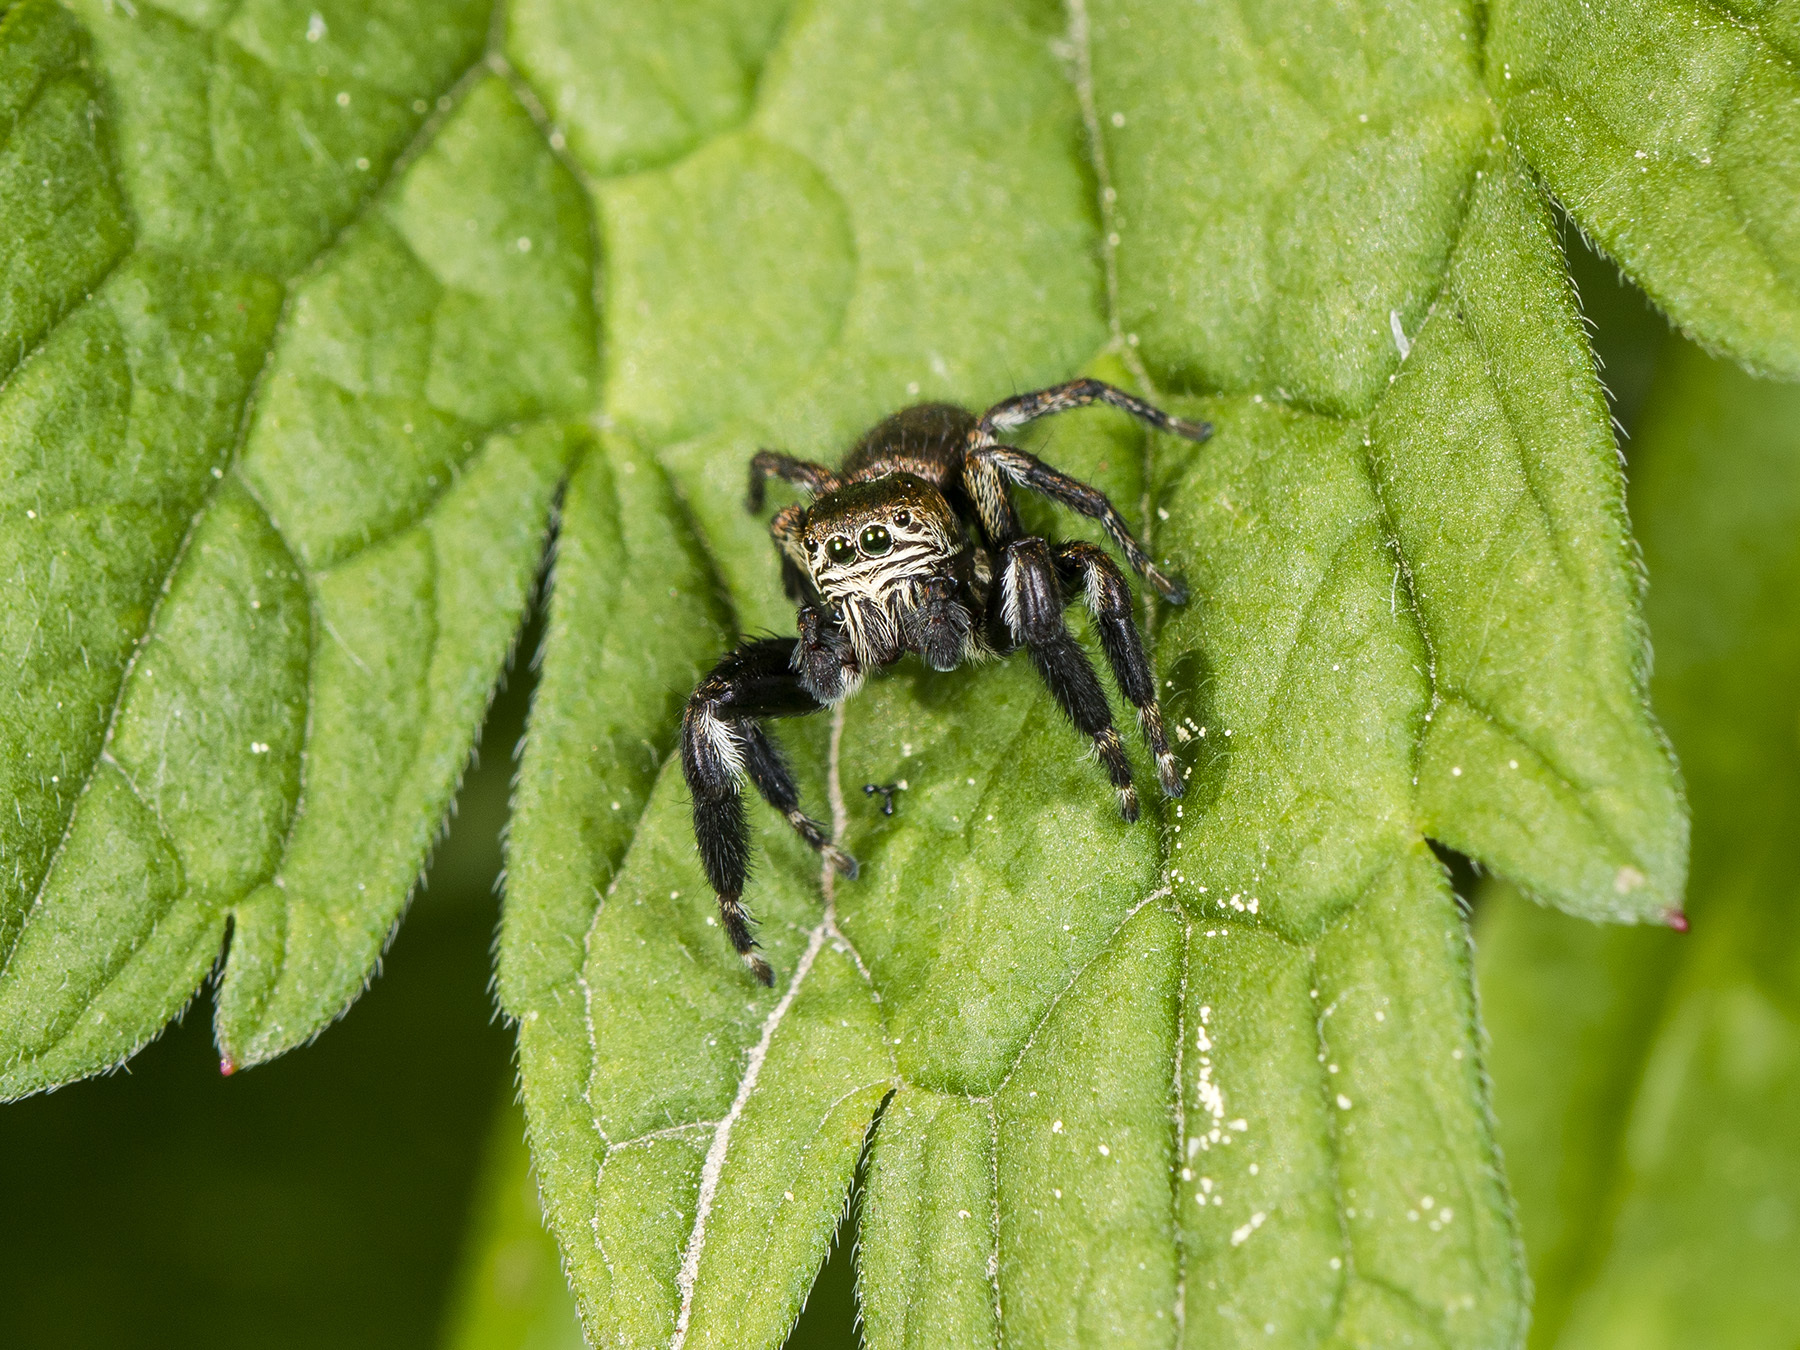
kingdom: Animalia
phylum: Arthropoda
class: Arachnida
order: Araneae
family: Salticidae
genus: Evarcha
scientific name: Evarcha arcuata
